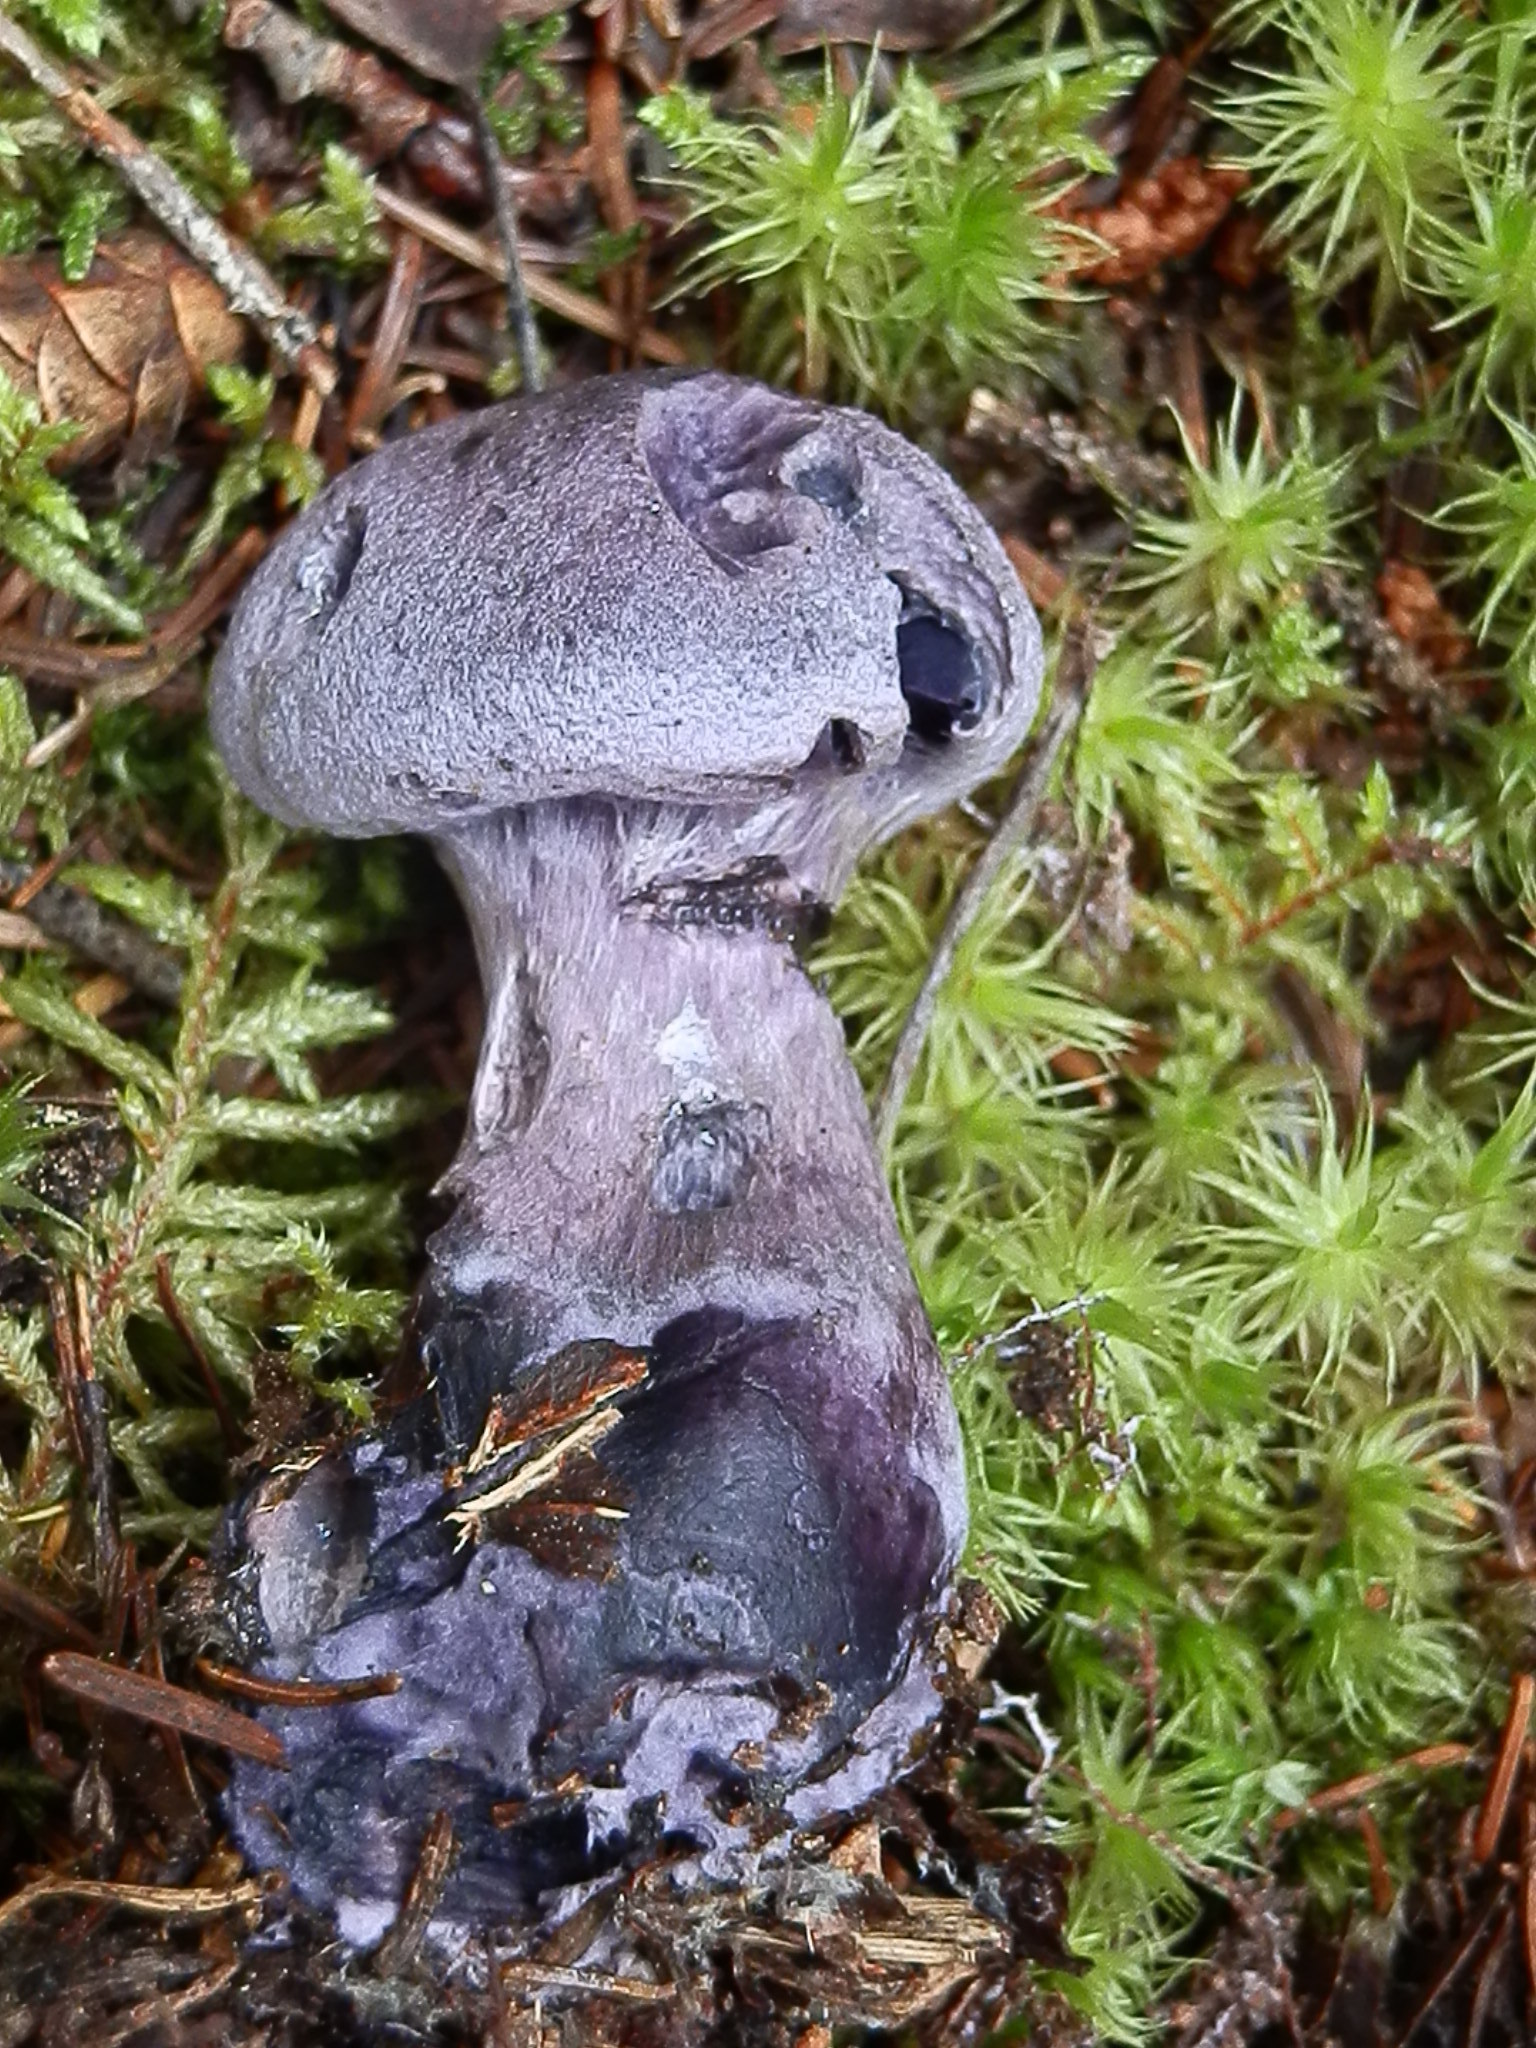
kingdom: Fungi
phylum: Basidiomycota
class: Agaricomycetes
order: Agaricales
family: Cortinariaceae
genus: Cortinarius
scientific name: Cortinarius violaceus
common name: Violet webcap
